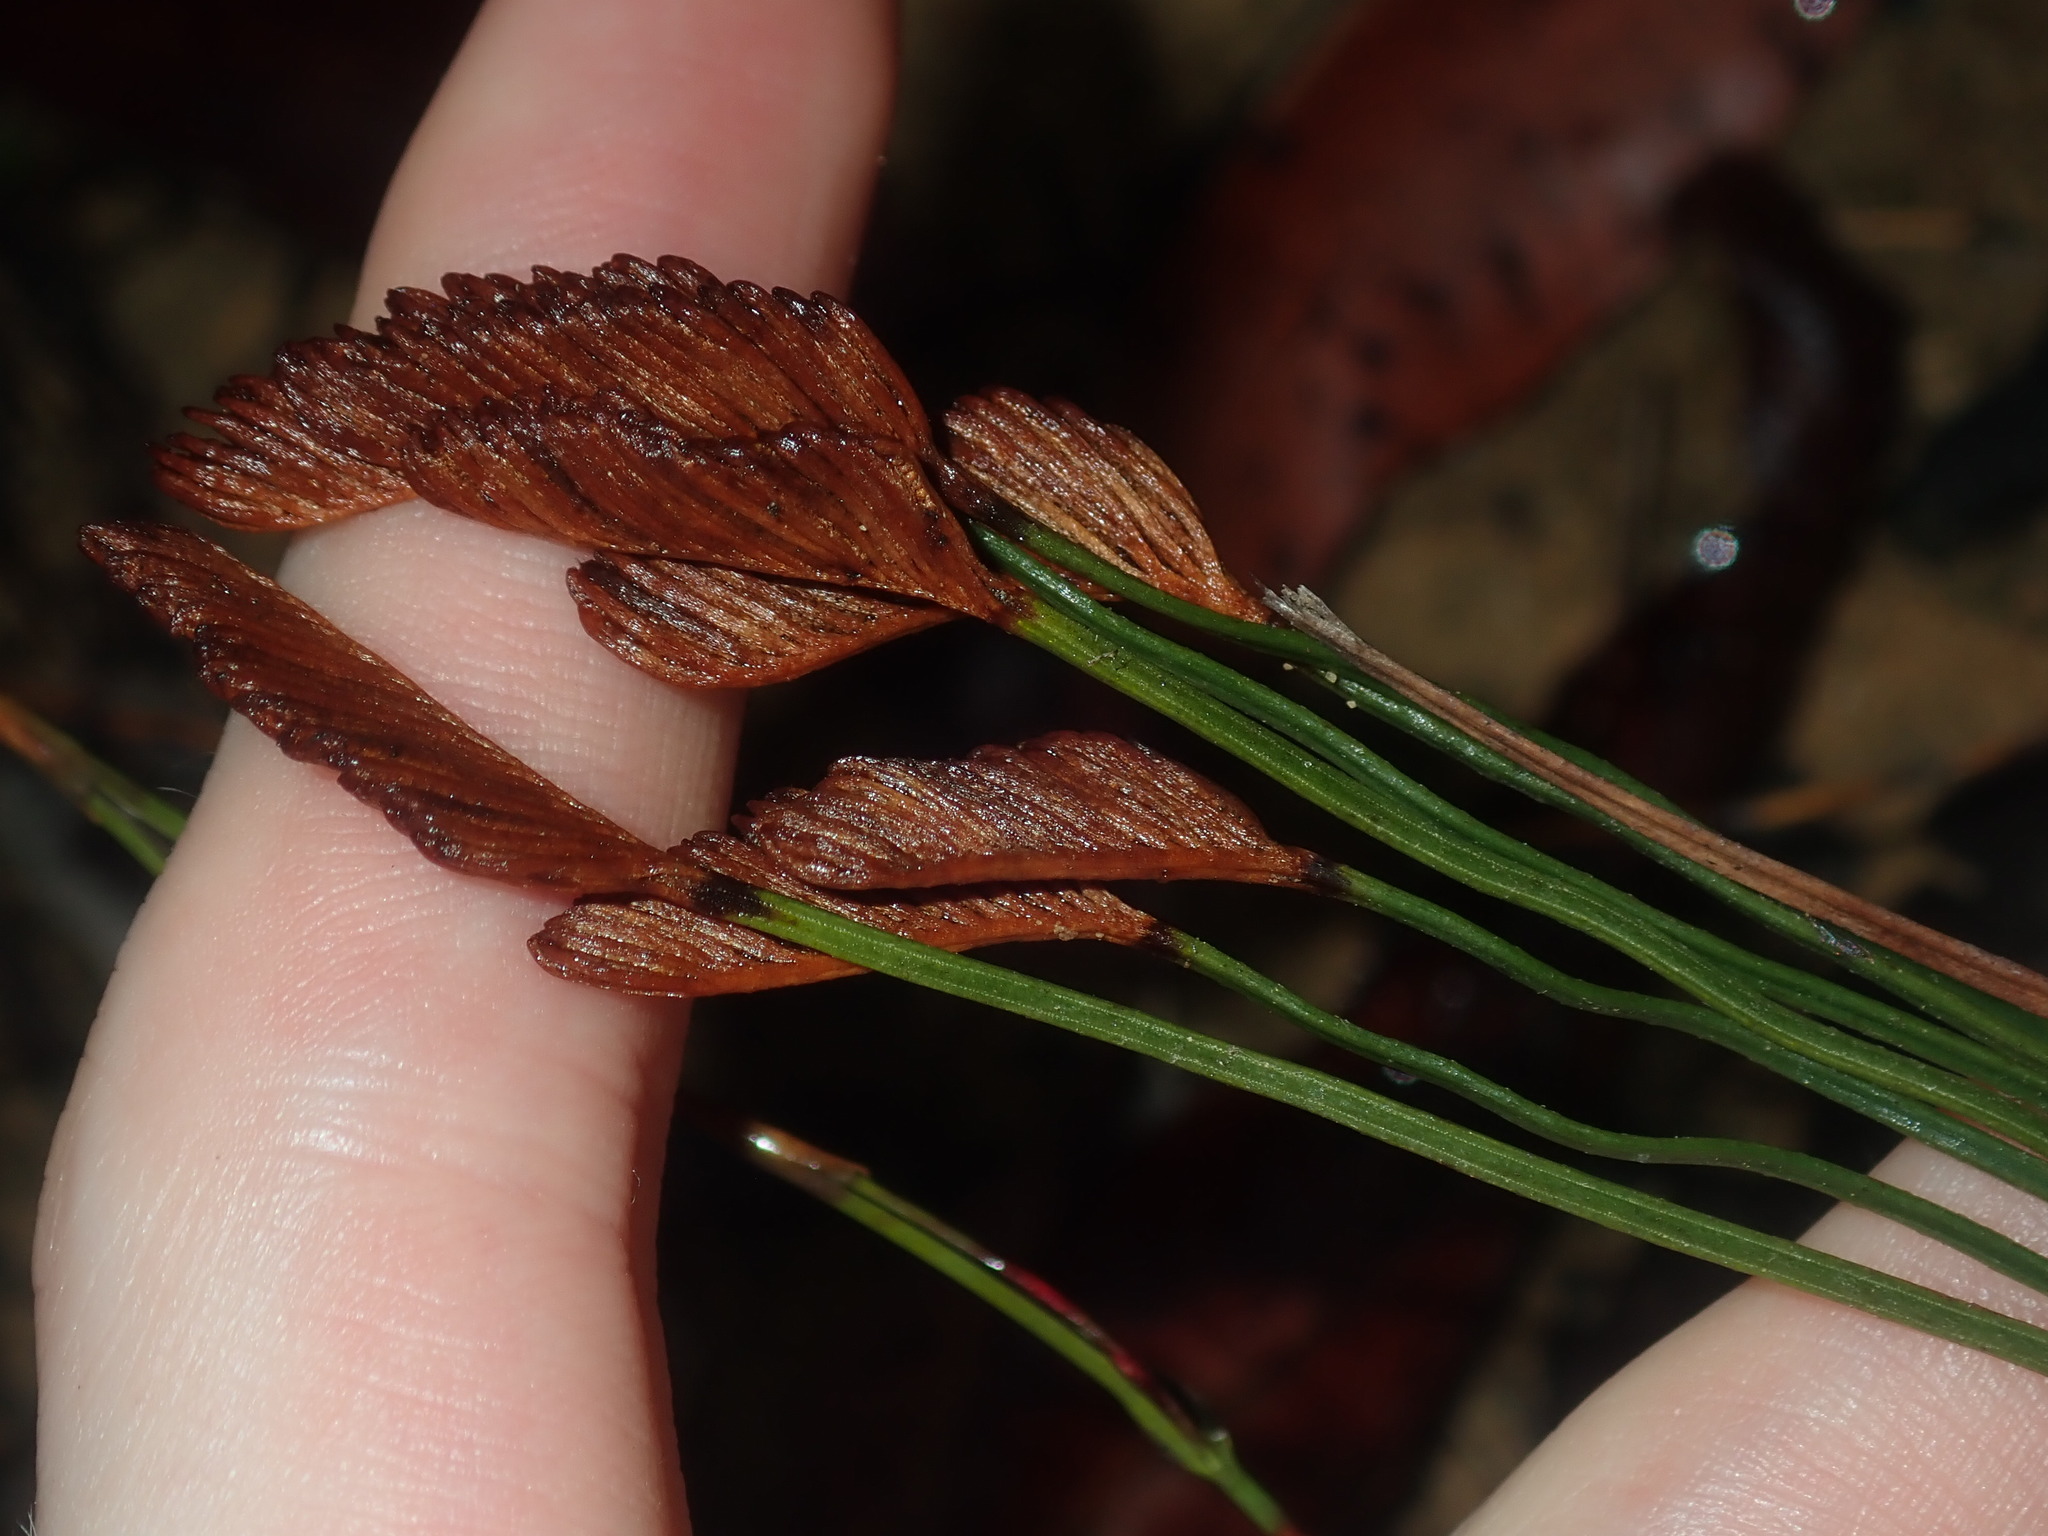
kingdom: Plantae
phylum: Tracheophyta
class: Polypodiopsida
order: Schizaeales
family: Schizaeaceae
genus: Schizaea
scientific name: Schizaea bifida
